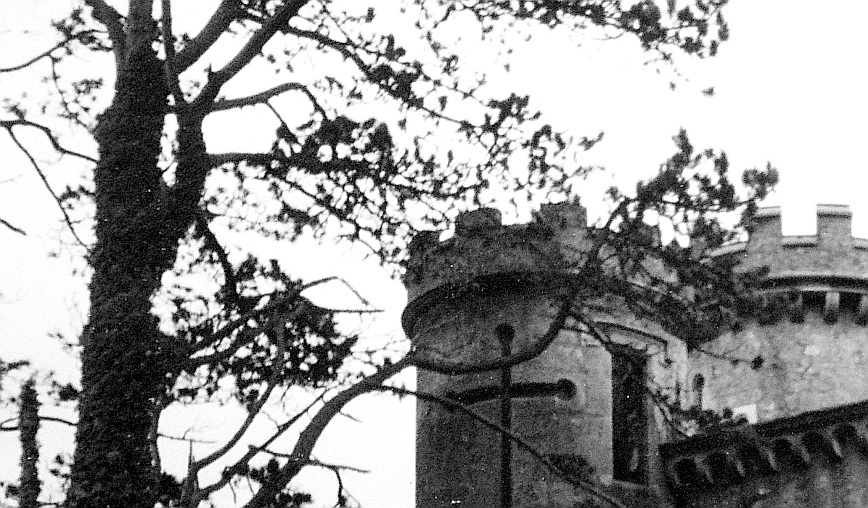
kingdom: Plantae
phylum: Tracheophyta
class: Pinopsida
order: Pinales
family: Pinaceae
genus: Pinus
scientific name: Pinus sylvestris
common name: Scots pine
